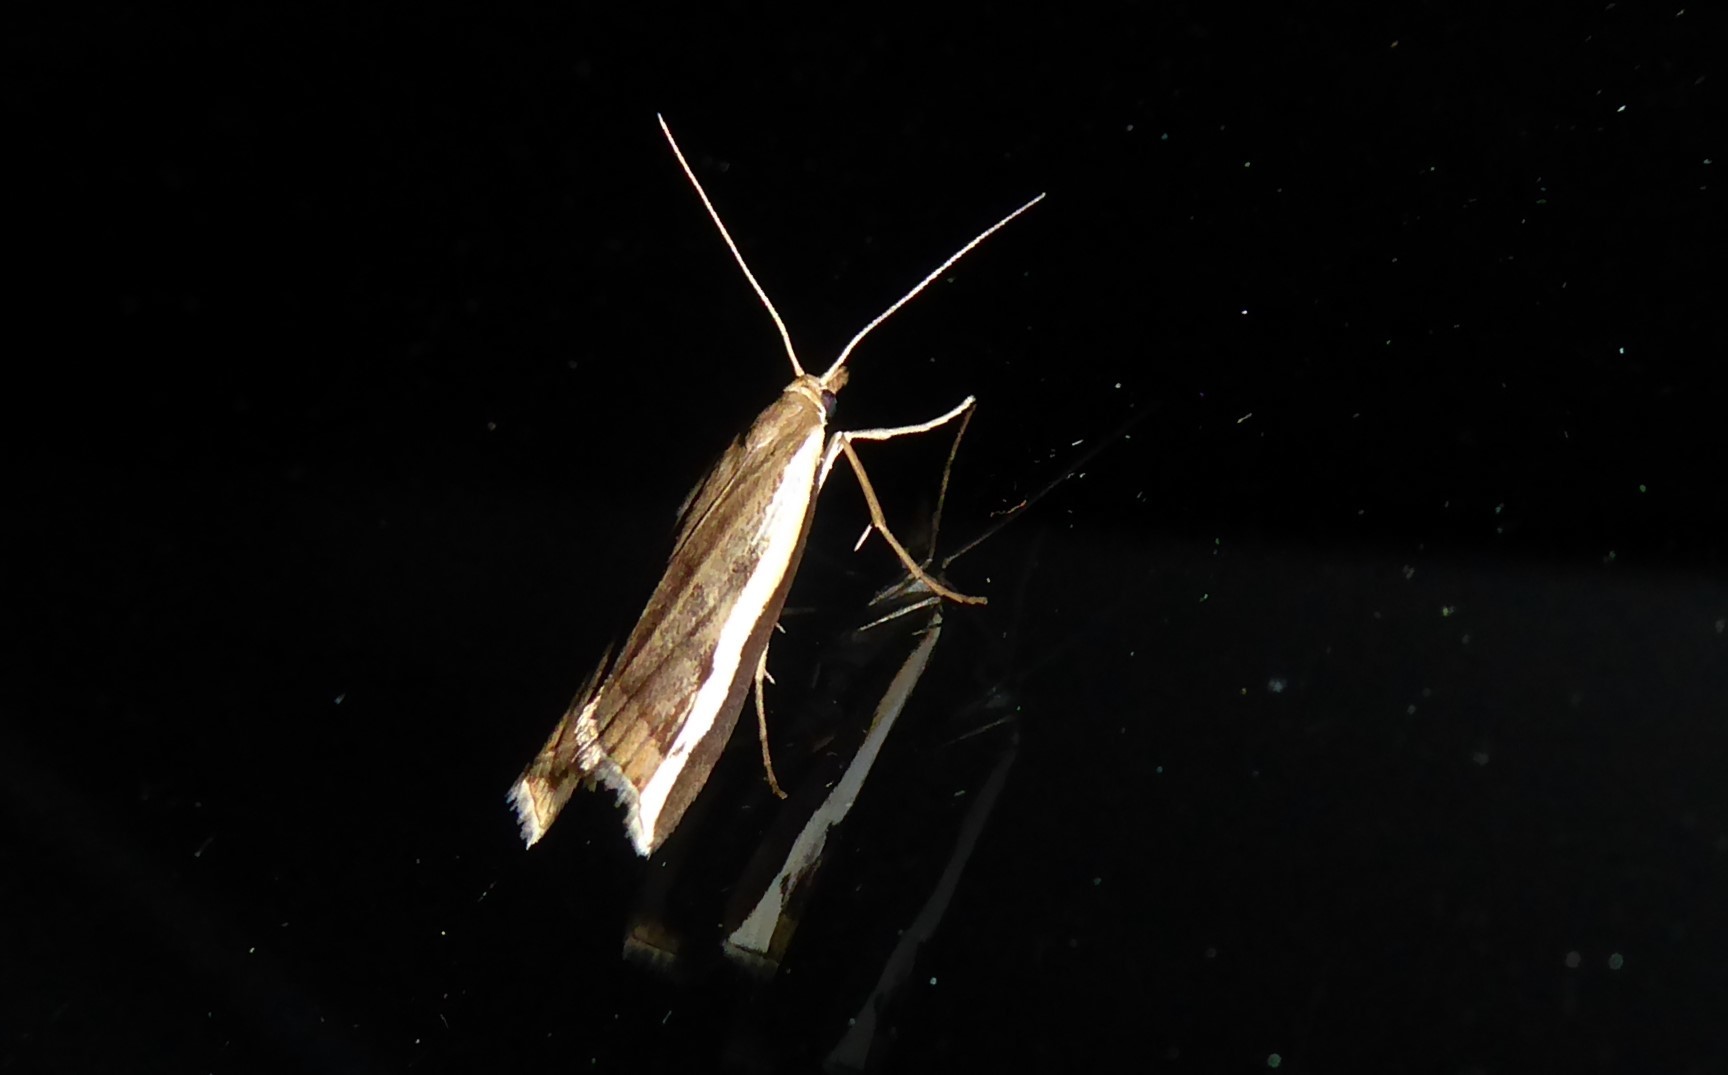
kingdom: Animalia
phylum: Arthropoda
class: Insecta
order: Lepidoptera
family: Crambidae
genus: Orocrambus
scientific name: Orocrambus flexuosellus
